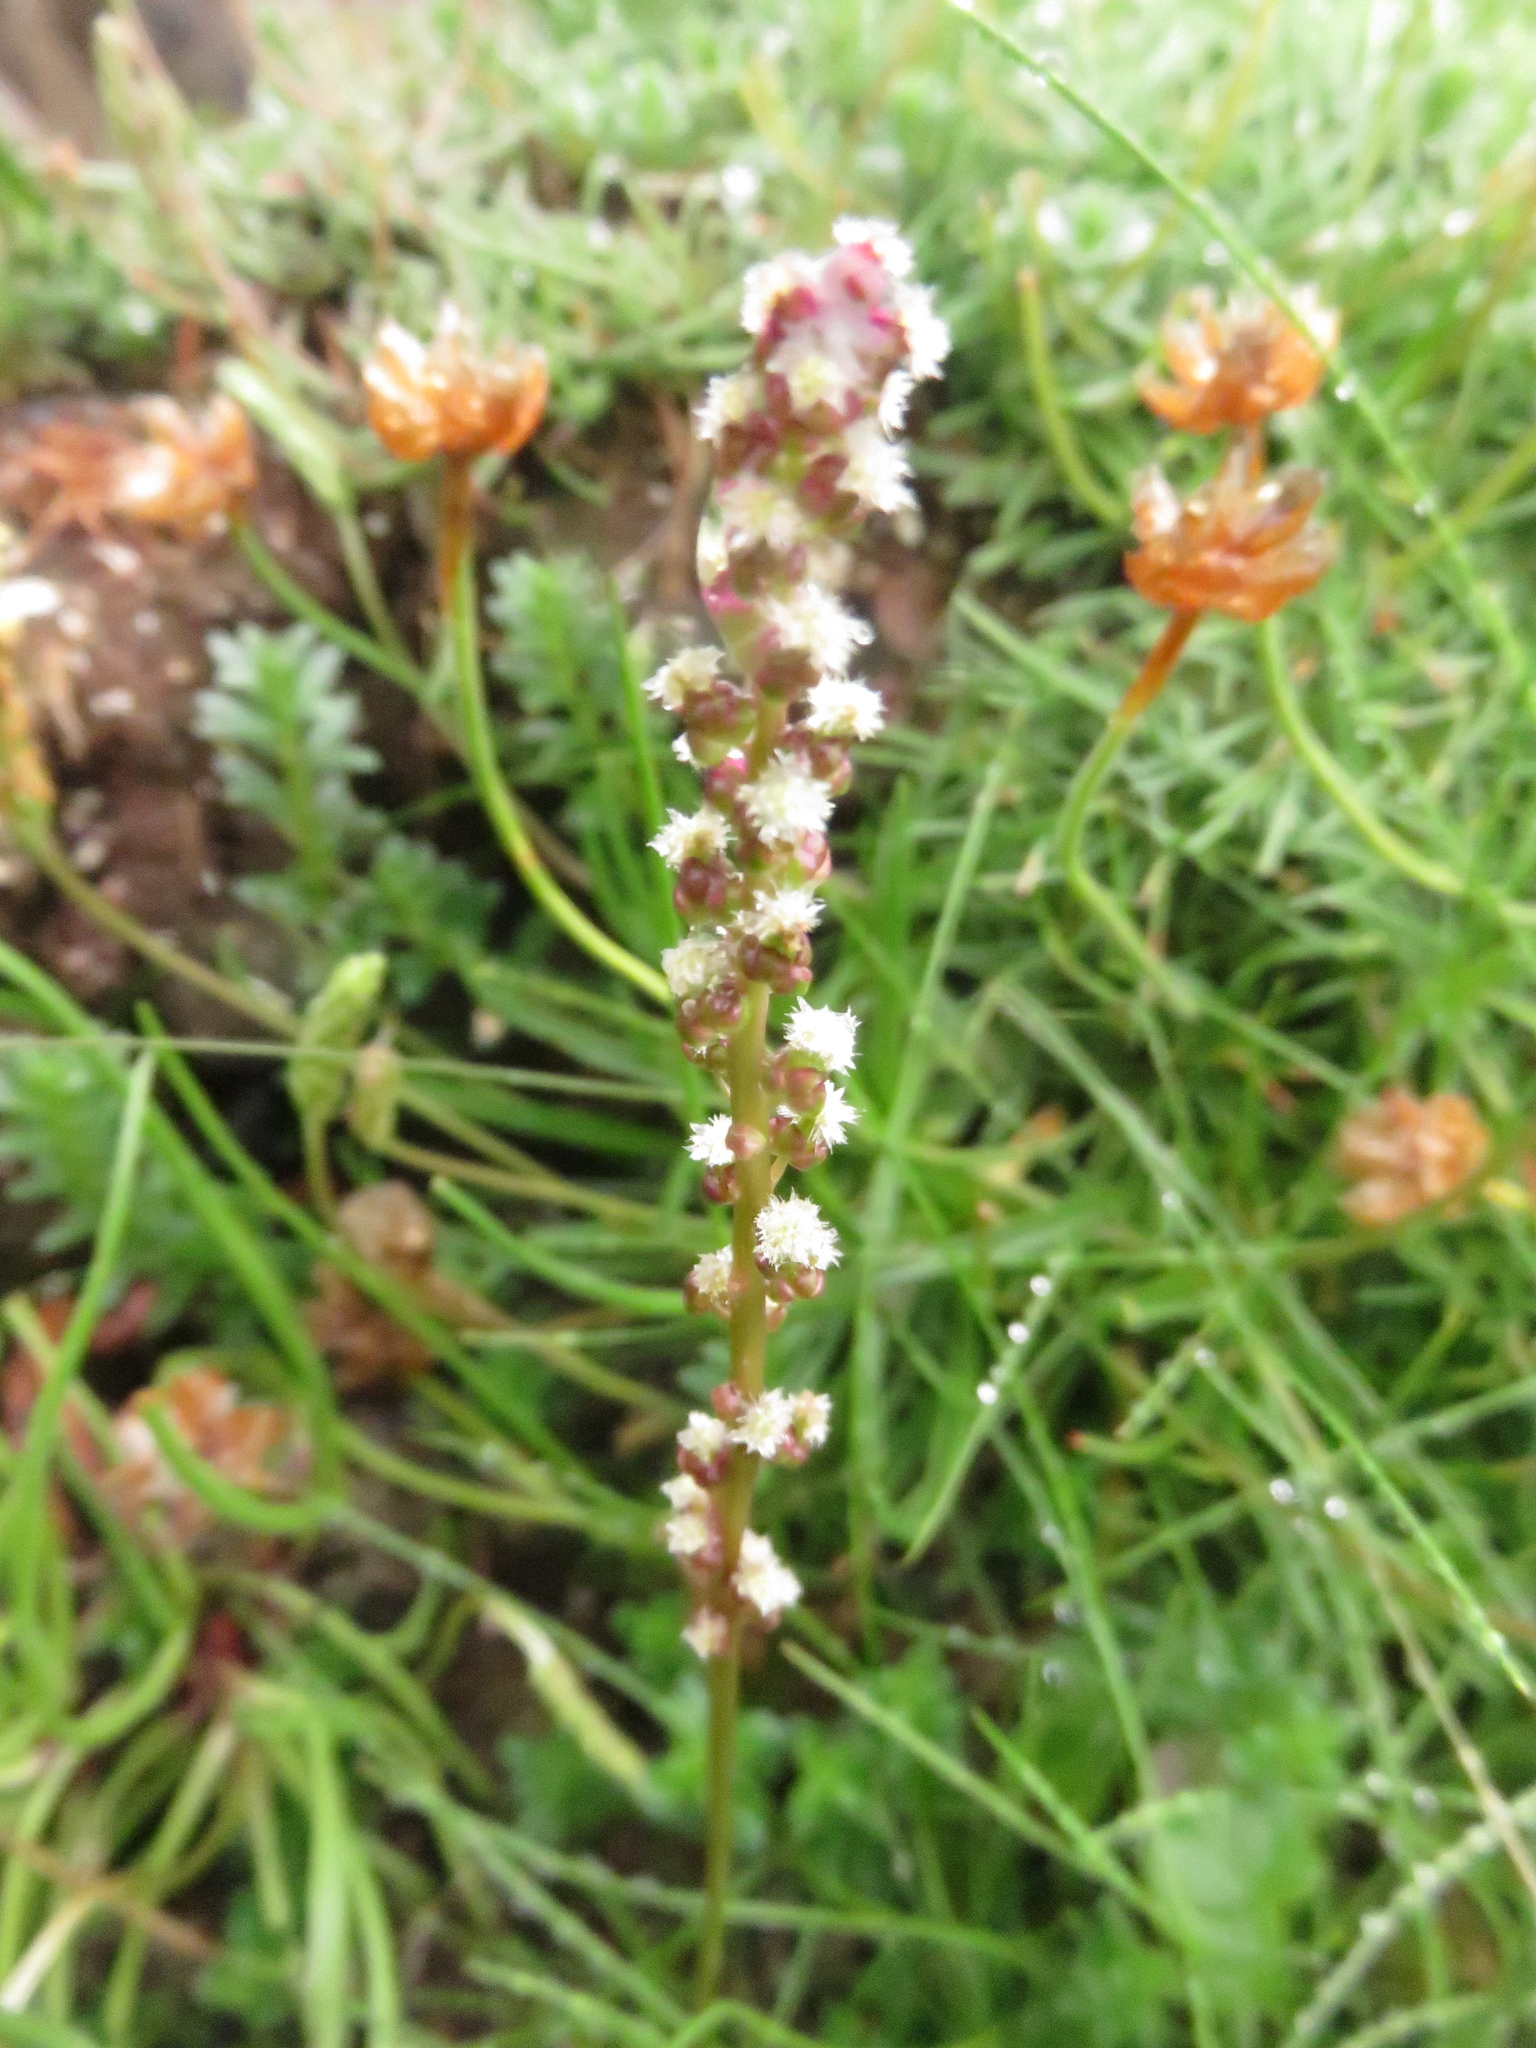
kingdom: Plantae
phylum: Tracheophyta
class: Liliopsida
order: Alismatales
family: Juncaginaceae
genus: Triglochin
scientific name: Triglochin maritima
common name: Sea arrowgrass
